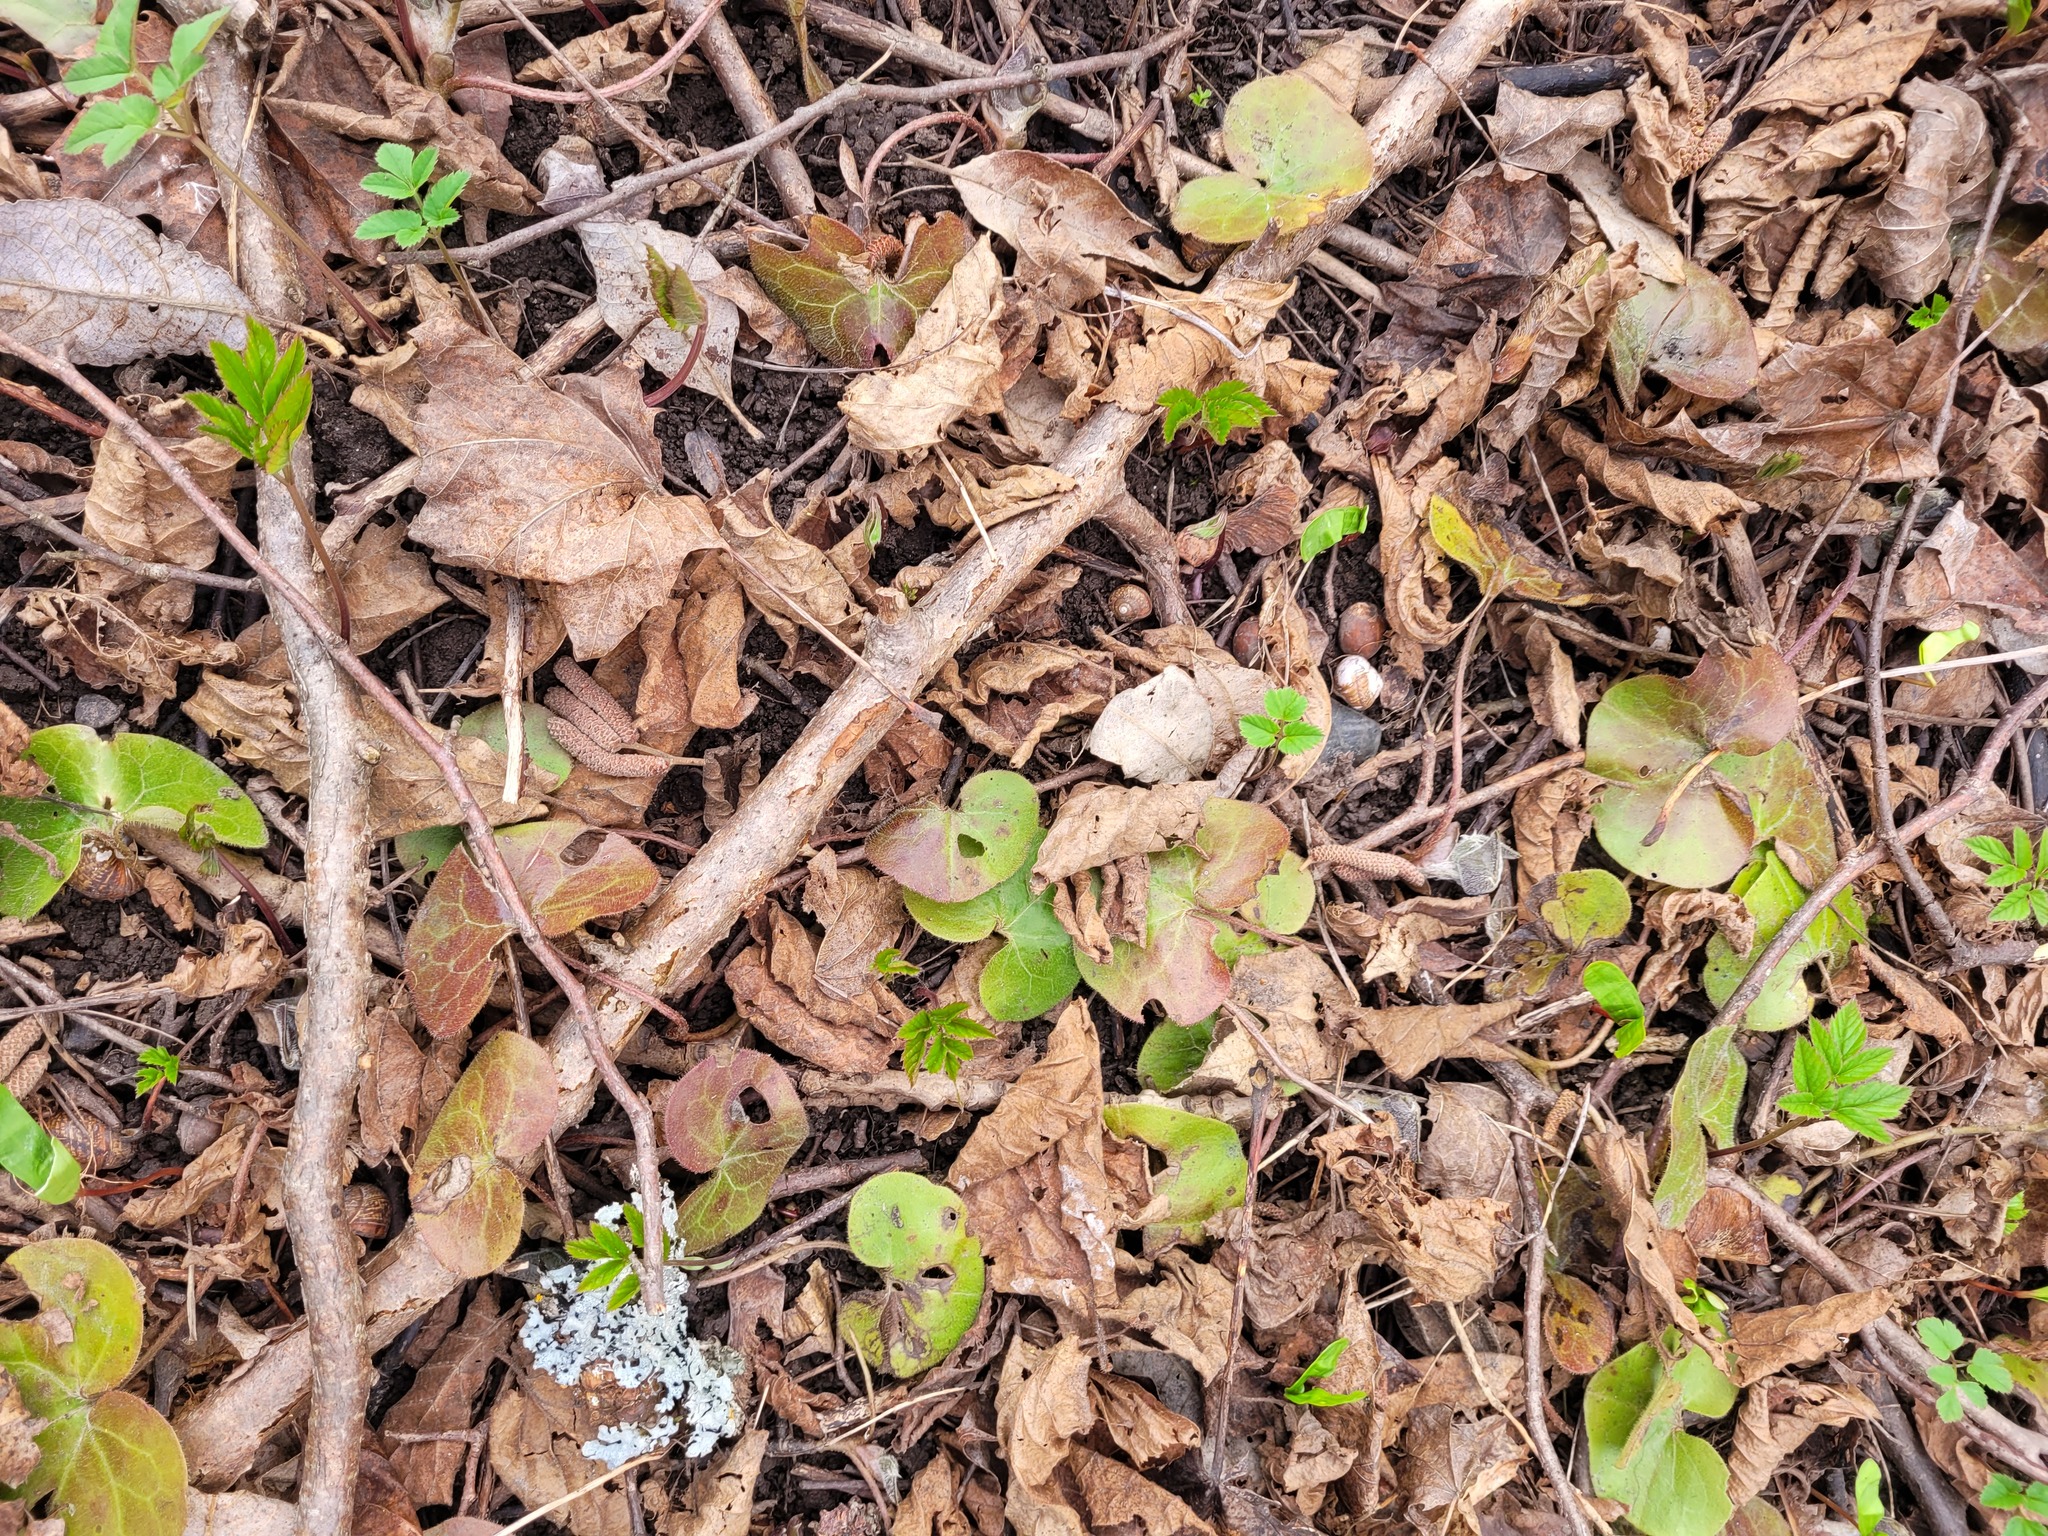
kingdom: Plantae
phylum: Tracheophyta
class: Magnoliopsida
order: Piperales
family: Aristolochiaceae
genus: Asarum
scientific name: Asarum europaeum
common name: Asarabacca
